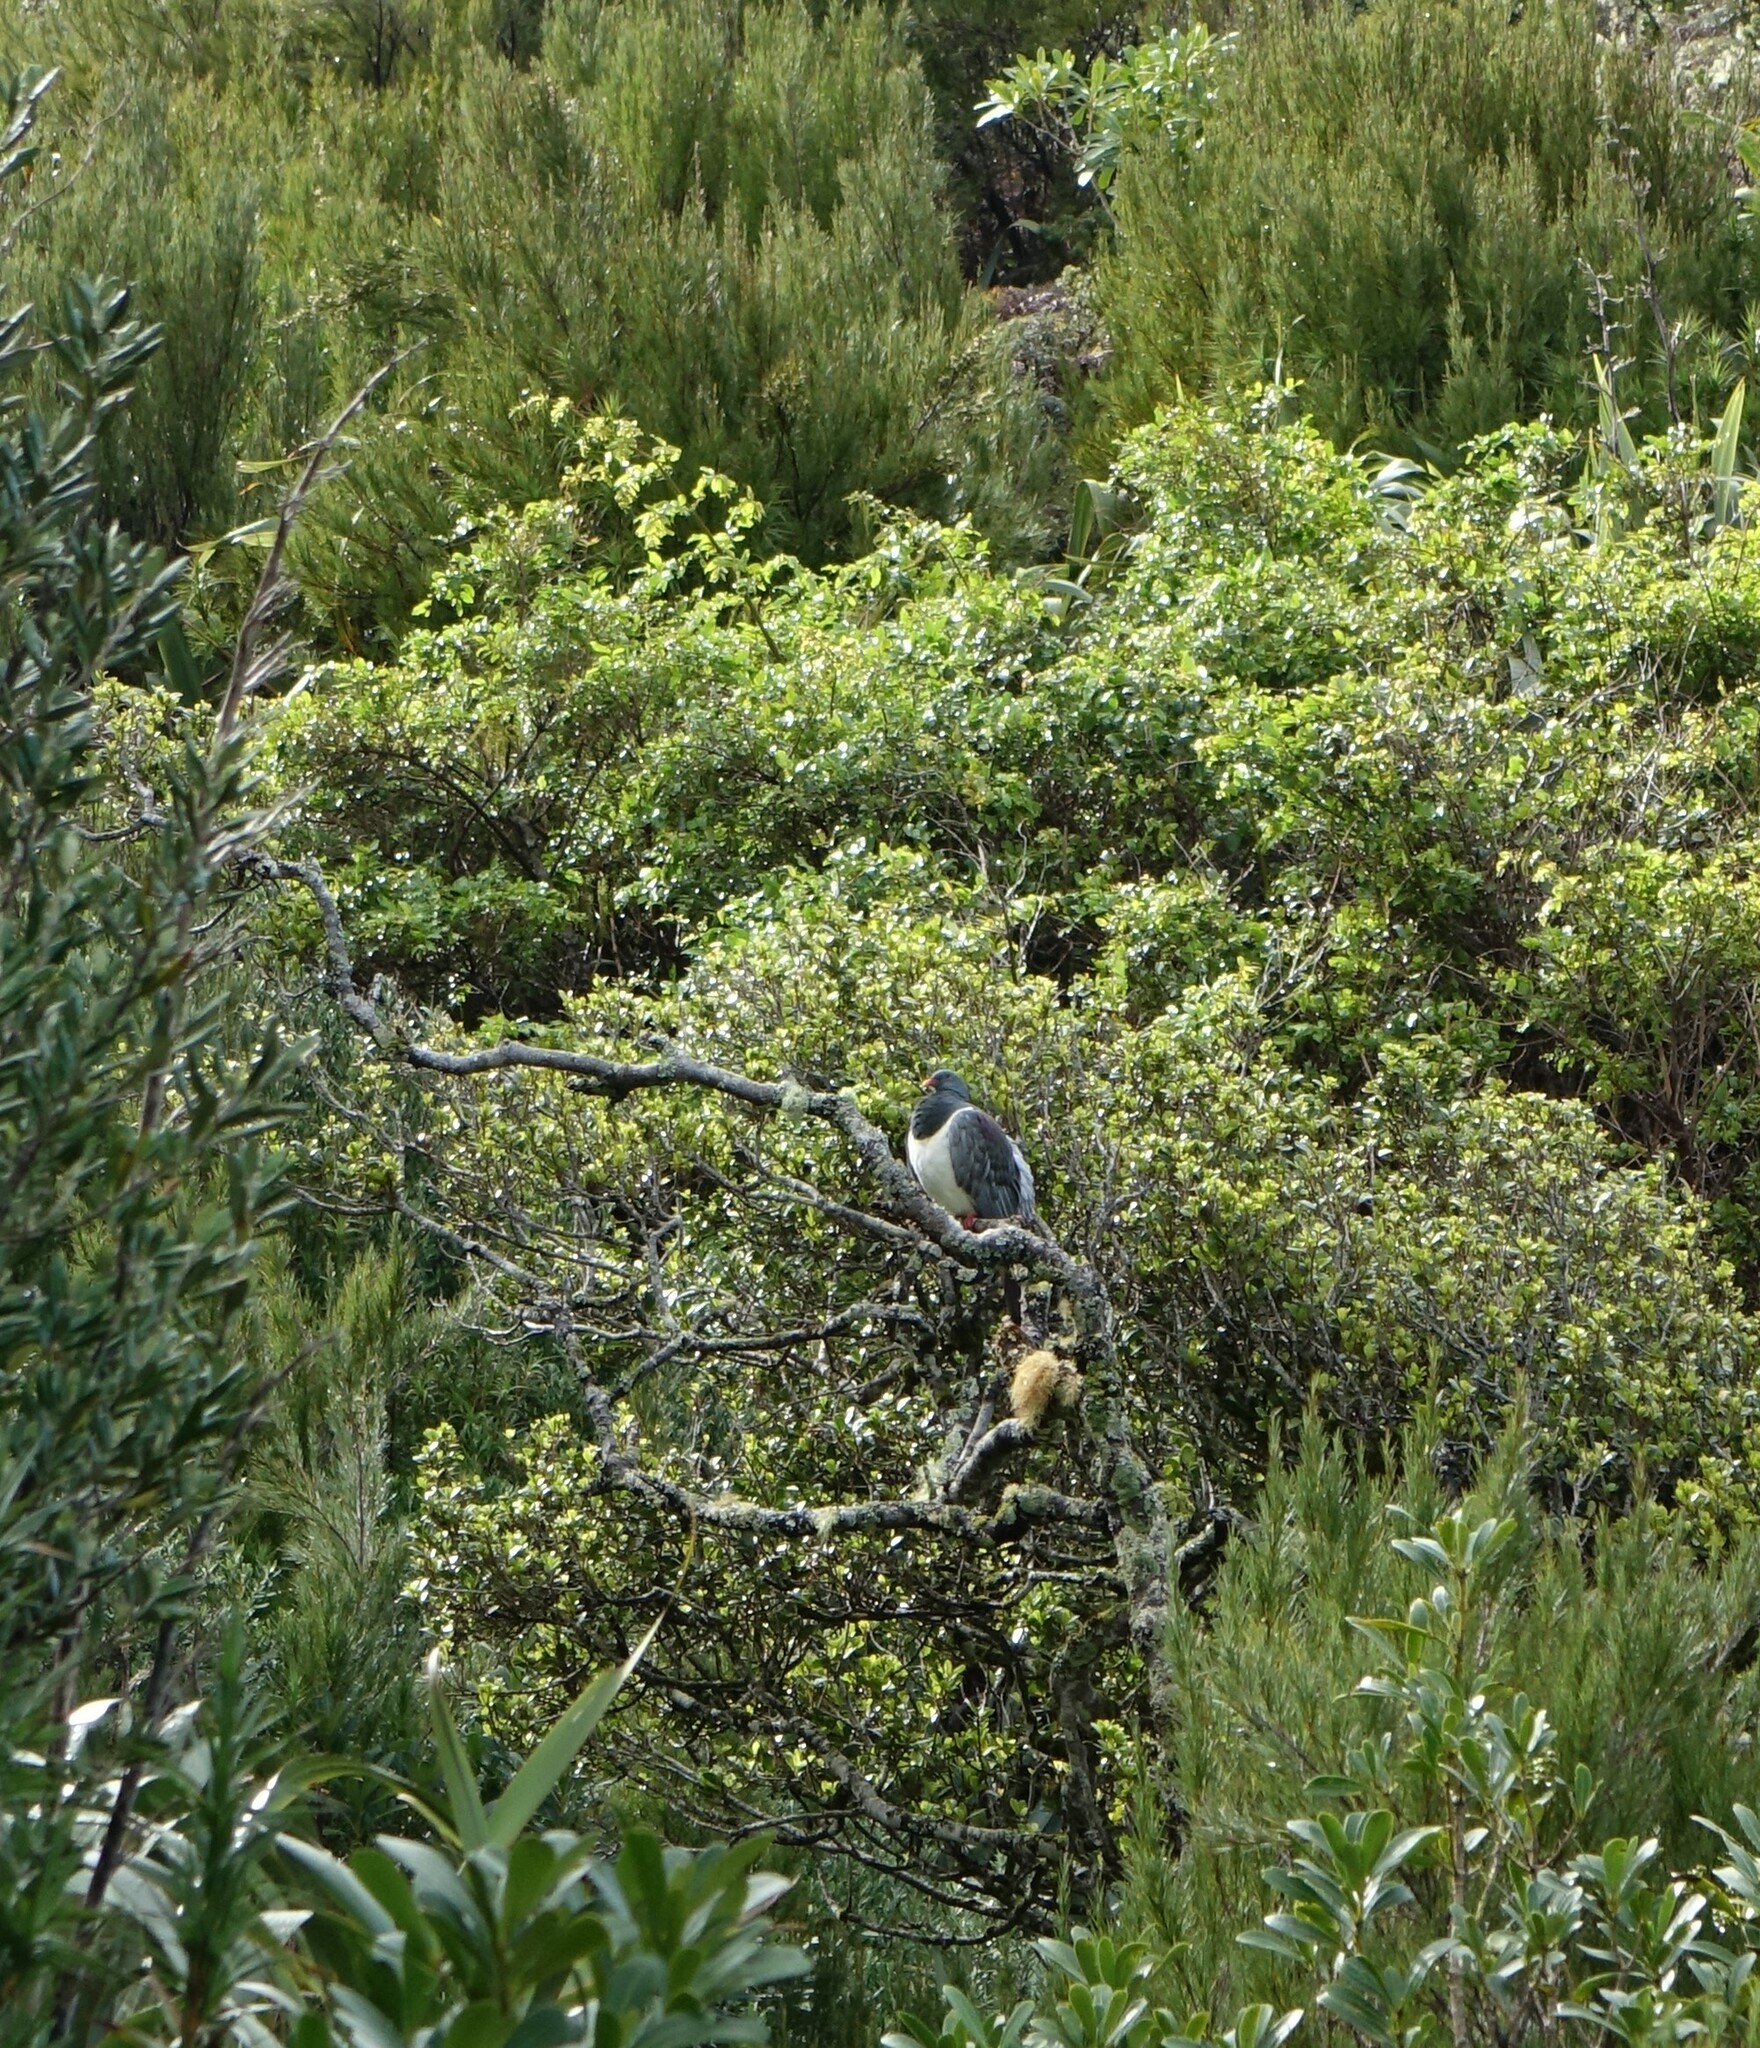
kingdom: Animalia
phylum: Chordata
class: Aves
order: Columbiformes
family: Columbidae
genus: Hemiphaga
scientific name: Hemiphaga chathamensis
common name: Chatham pigeon
